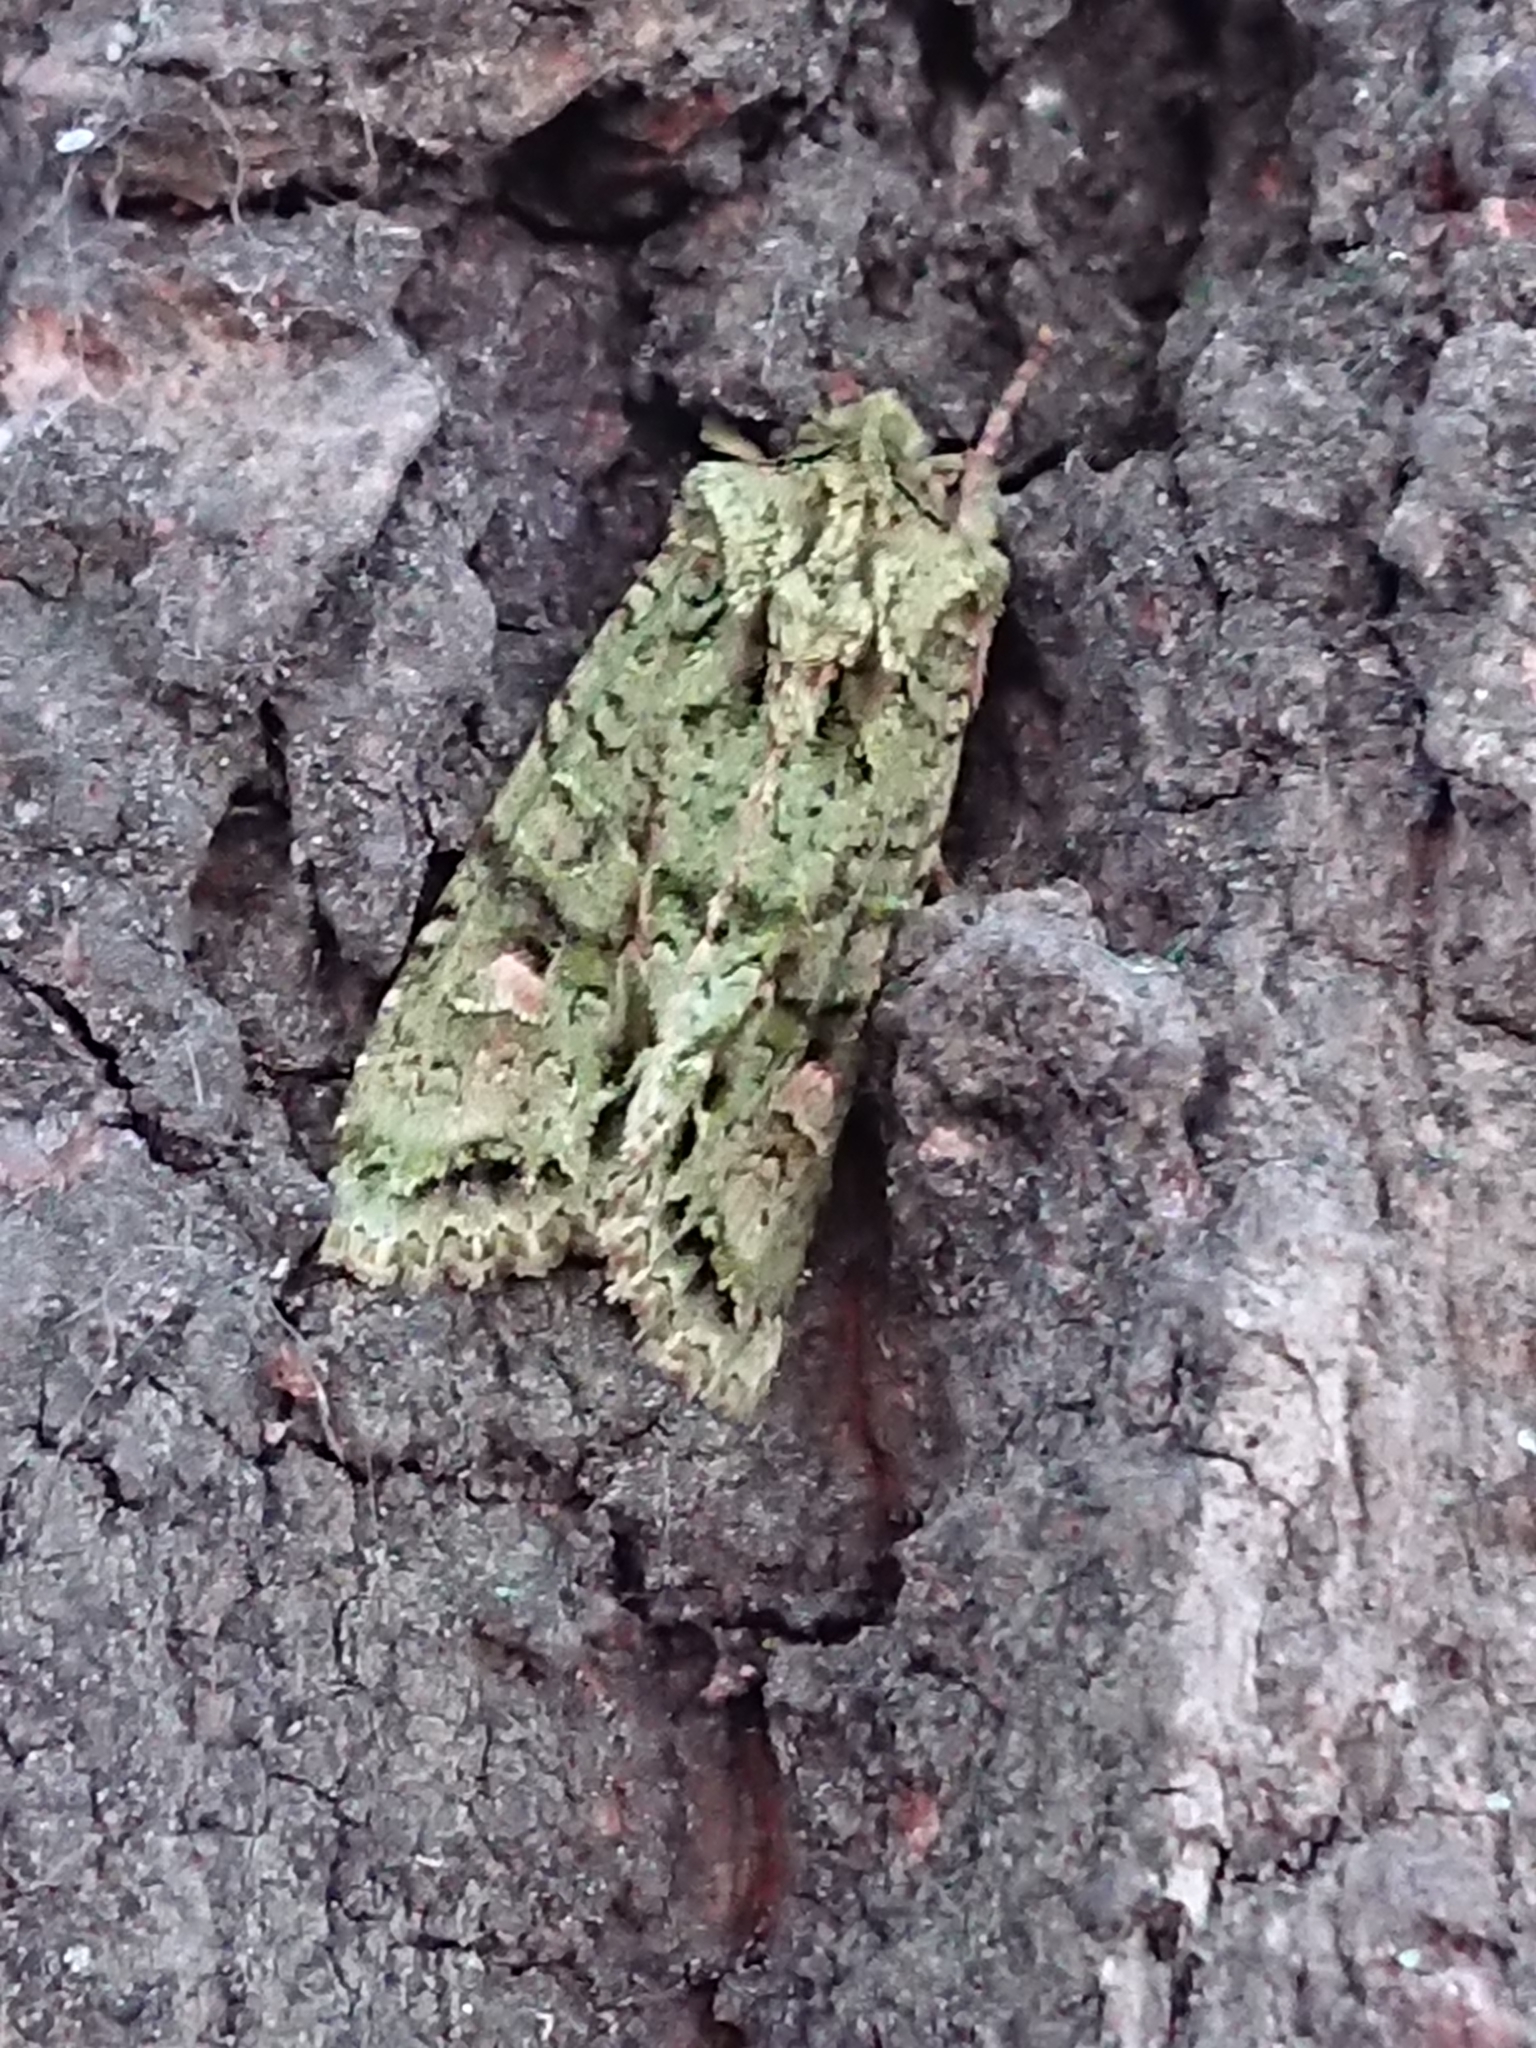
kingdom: Animalia
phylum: Arthropoda
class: Insecta
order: Lepidoptera
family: Noctuidae
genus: Ichneutica
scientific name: Ichneutica
